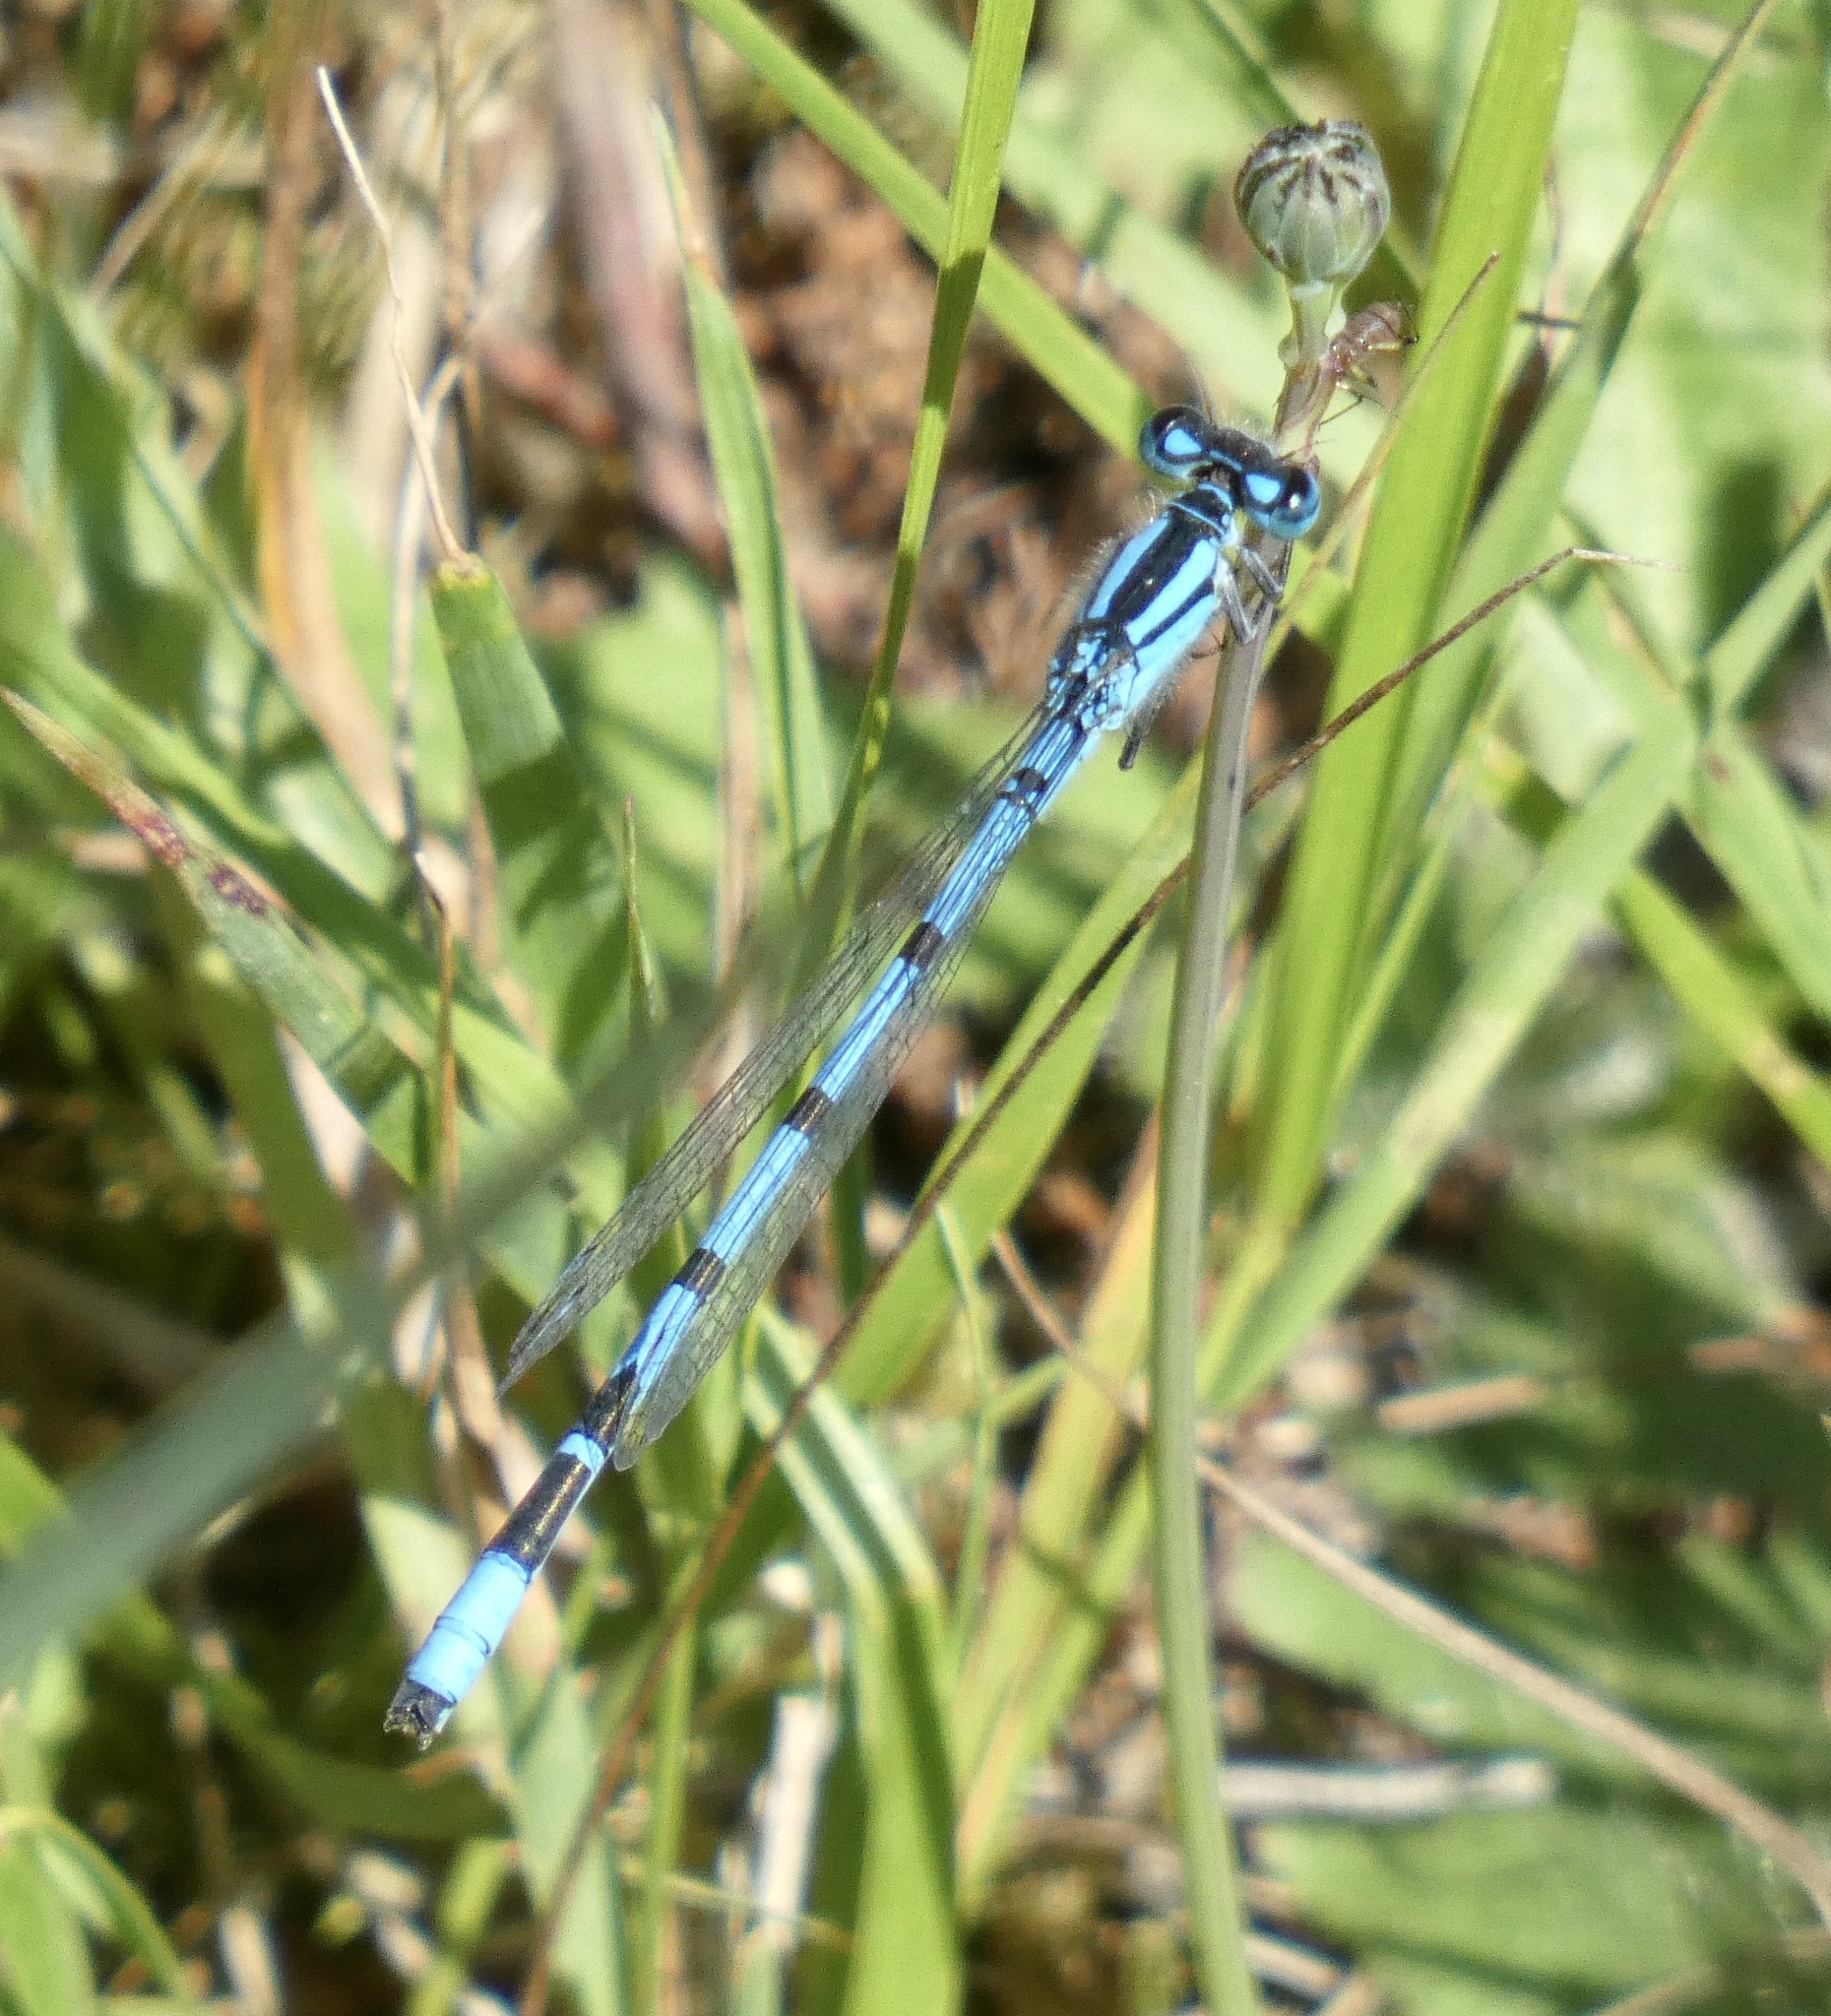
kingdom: Animalia
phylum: Arthropoda
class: Insecta
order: Odonata
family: Coenagrionidae
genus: Enallagma
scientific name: Enallagma cyathigerum
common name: Common blue damselfly
